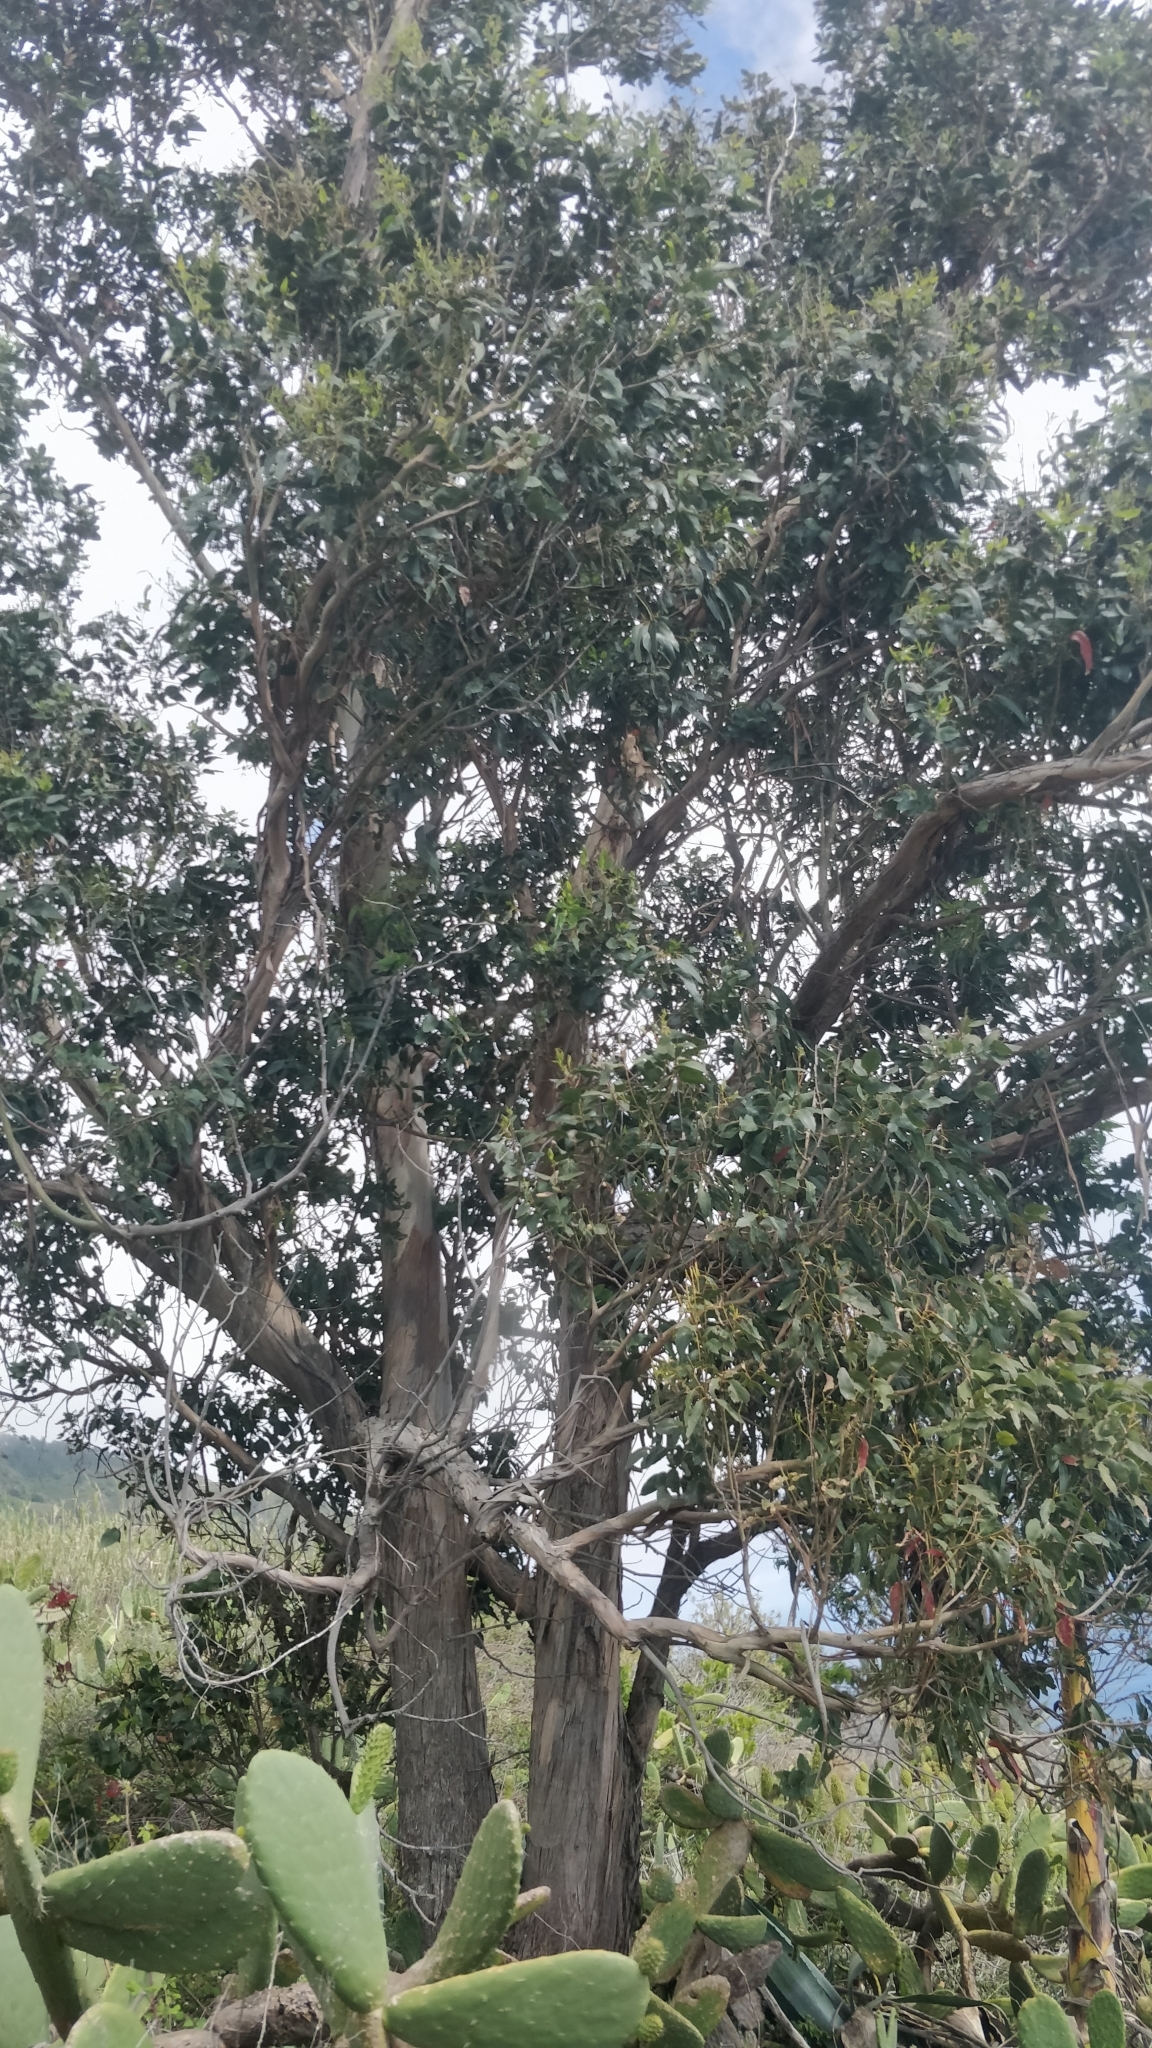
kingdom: Plantae
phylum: Tracheophyta
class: Magnoliopsida
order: Myrtales
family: Myrtaceae
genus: Eucalyptus
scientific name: Eucalyptus globulus
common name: Southern blue-gum
